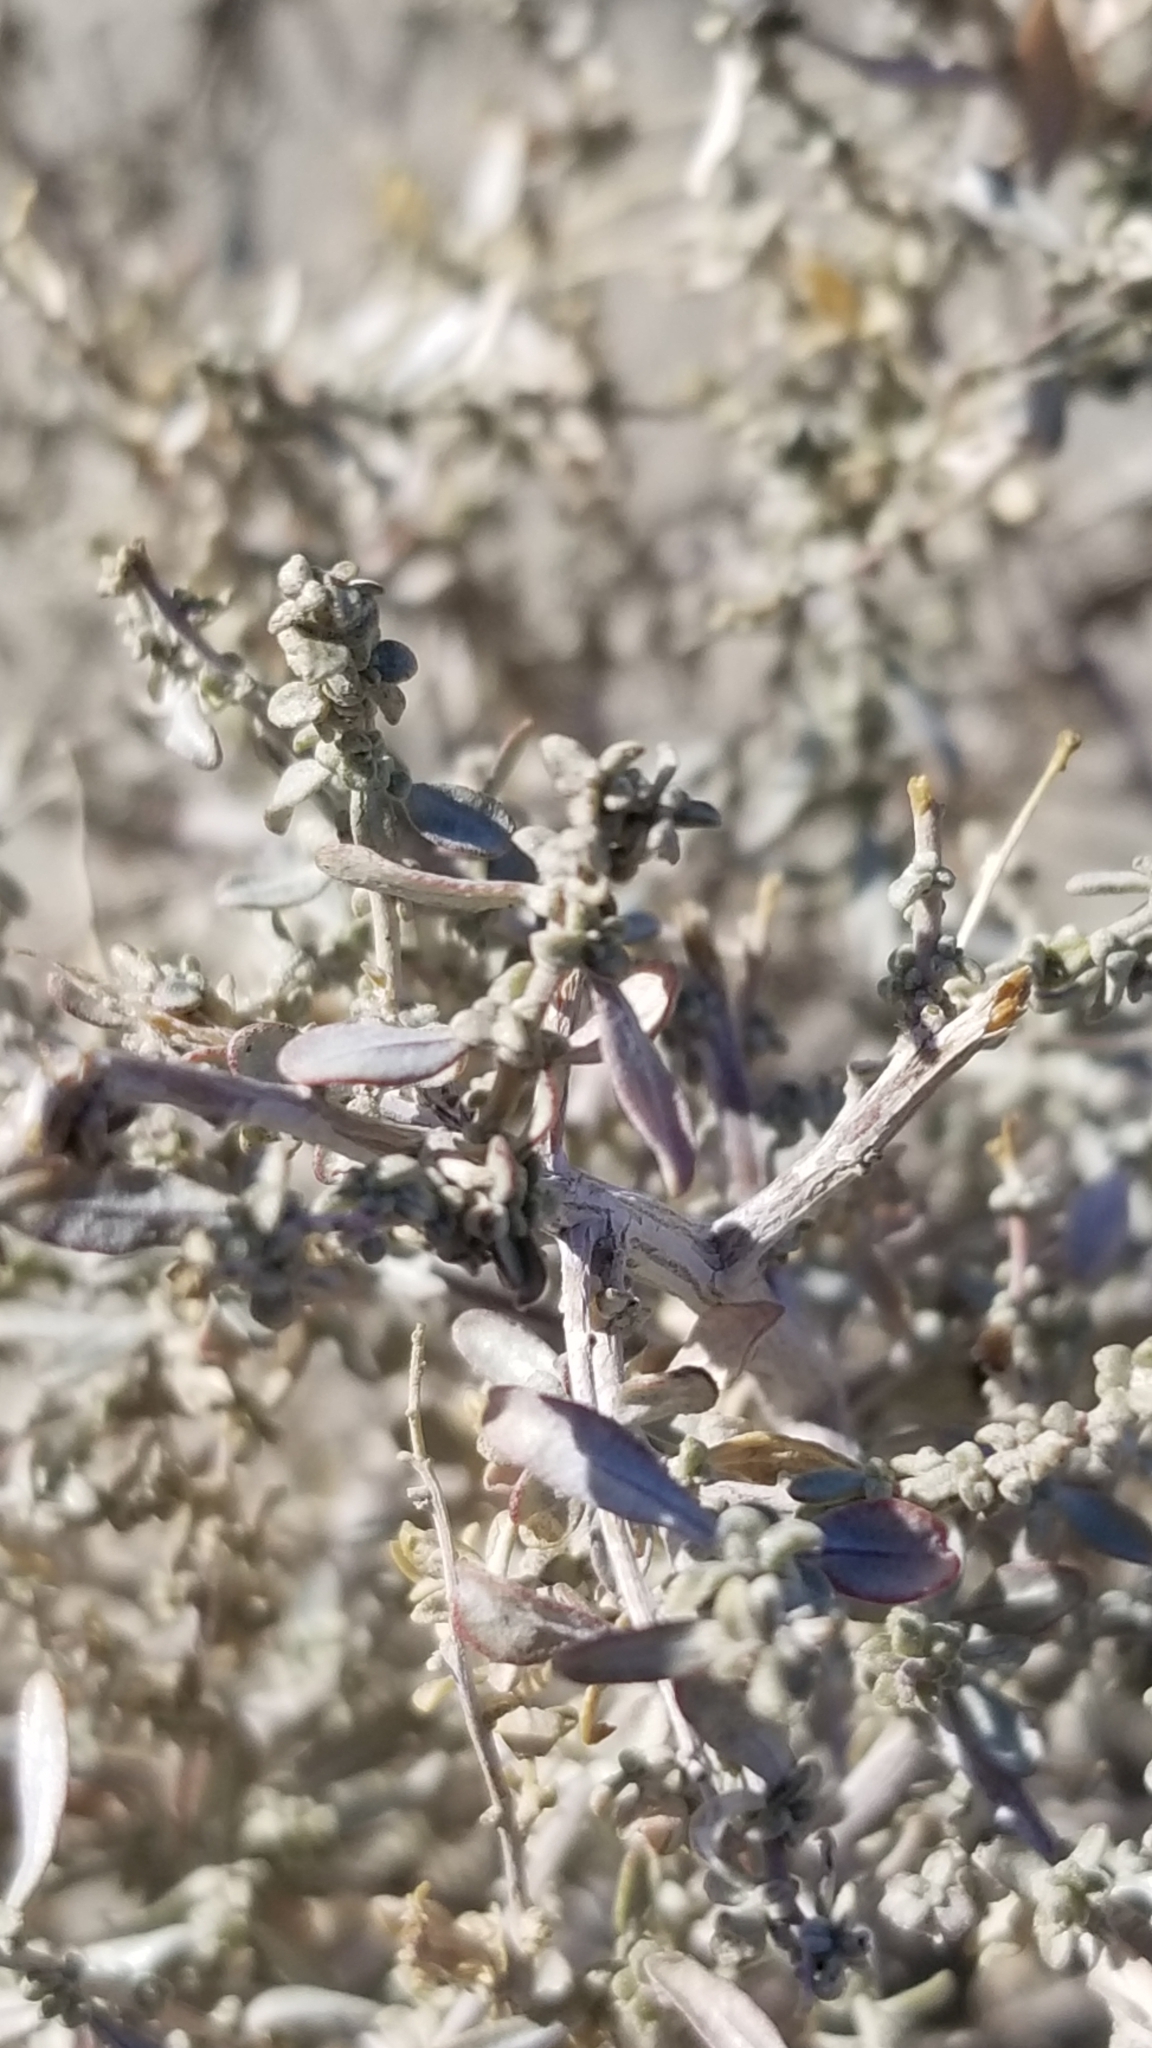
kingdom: Plantae
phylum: Tracheophyta
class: Magnoliopsida
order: Caryophyllales
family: Amaranthaceae
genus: Atriplex
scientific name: Atriplex polycarpa
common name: Desert saltbush
